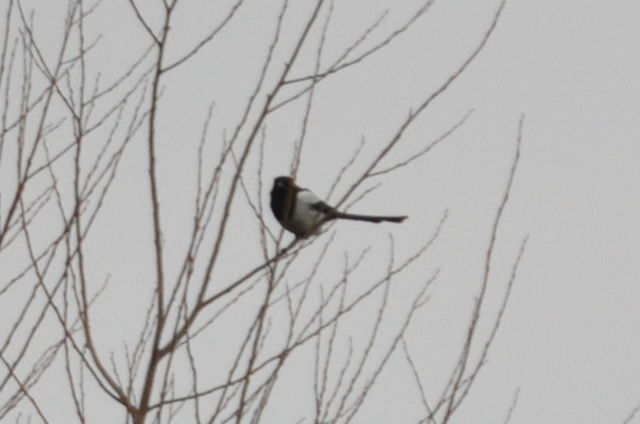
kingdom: Animalia
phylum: Chordata
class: Aves
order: Passeriformes
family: Corvidae
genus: Pica
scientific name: Pica pica
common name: Eurasian magpie
